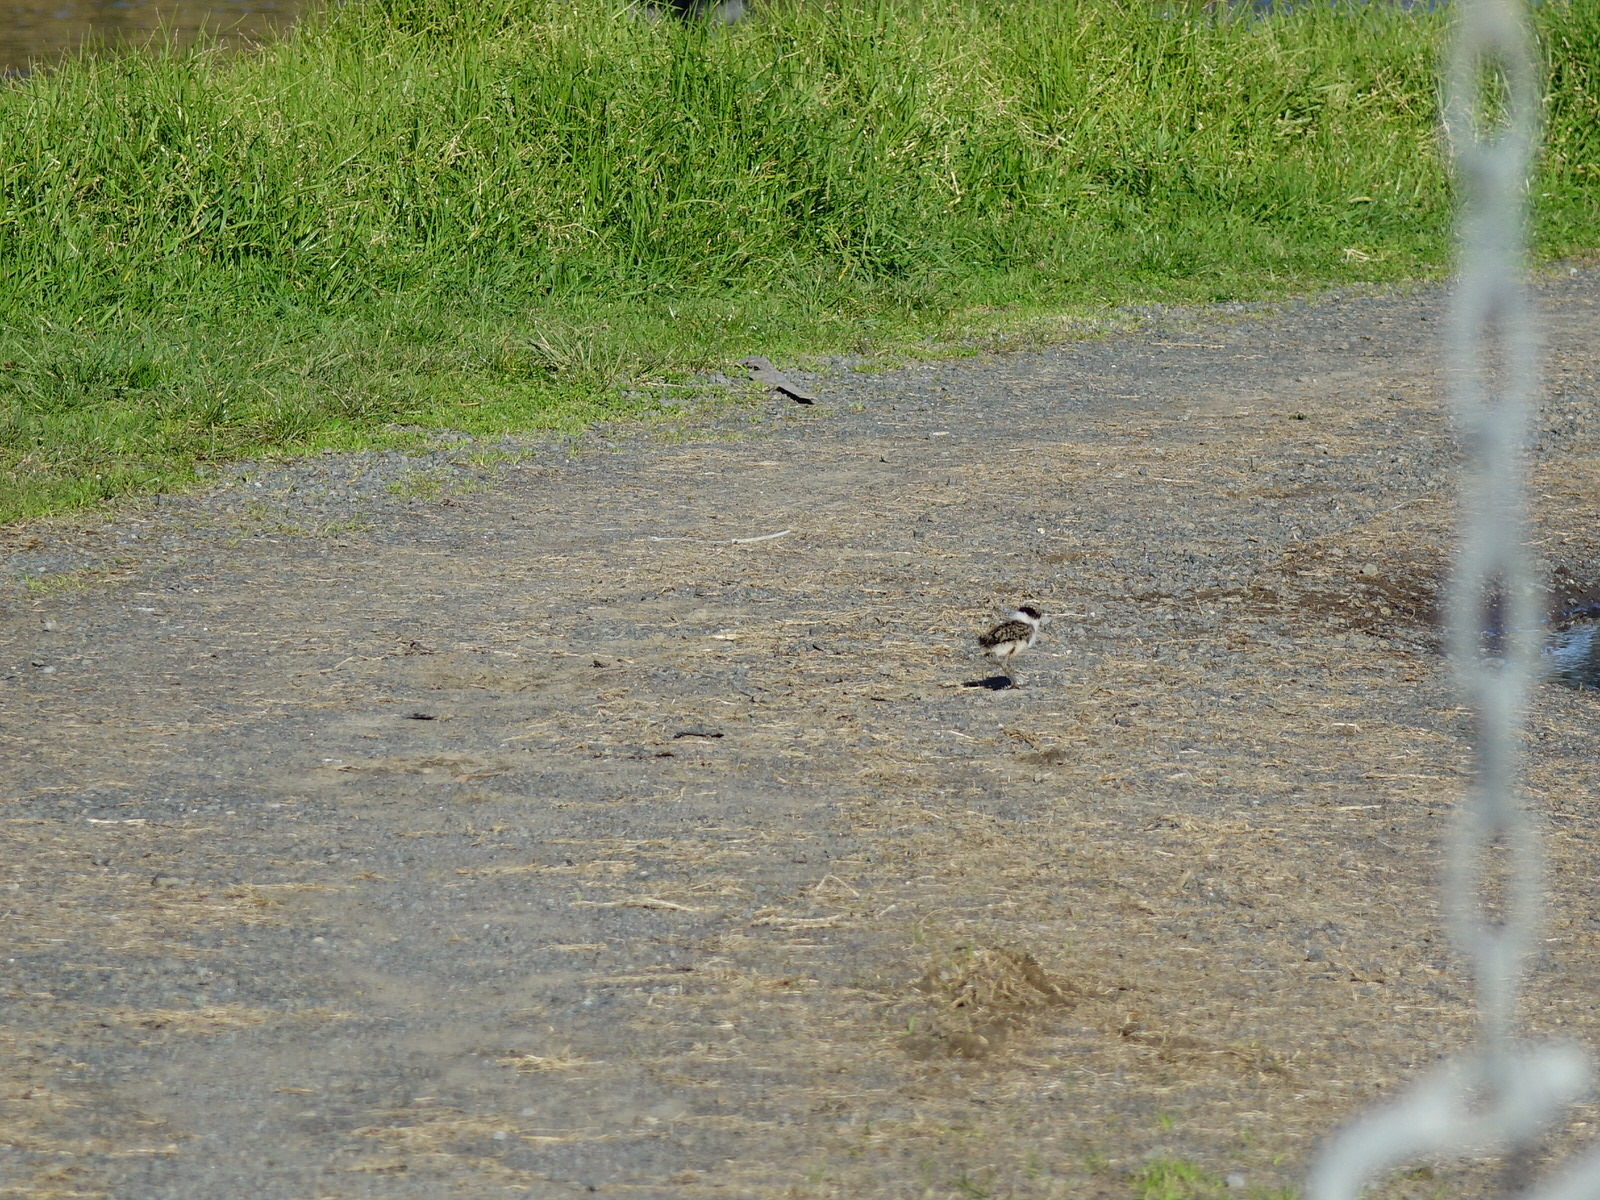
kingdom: Animalia
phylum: Chordata
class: Aves
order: Charadriiformes
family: Charadriidae
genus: Vanellus
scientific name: Vanellus miles
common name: Masked lapwing
